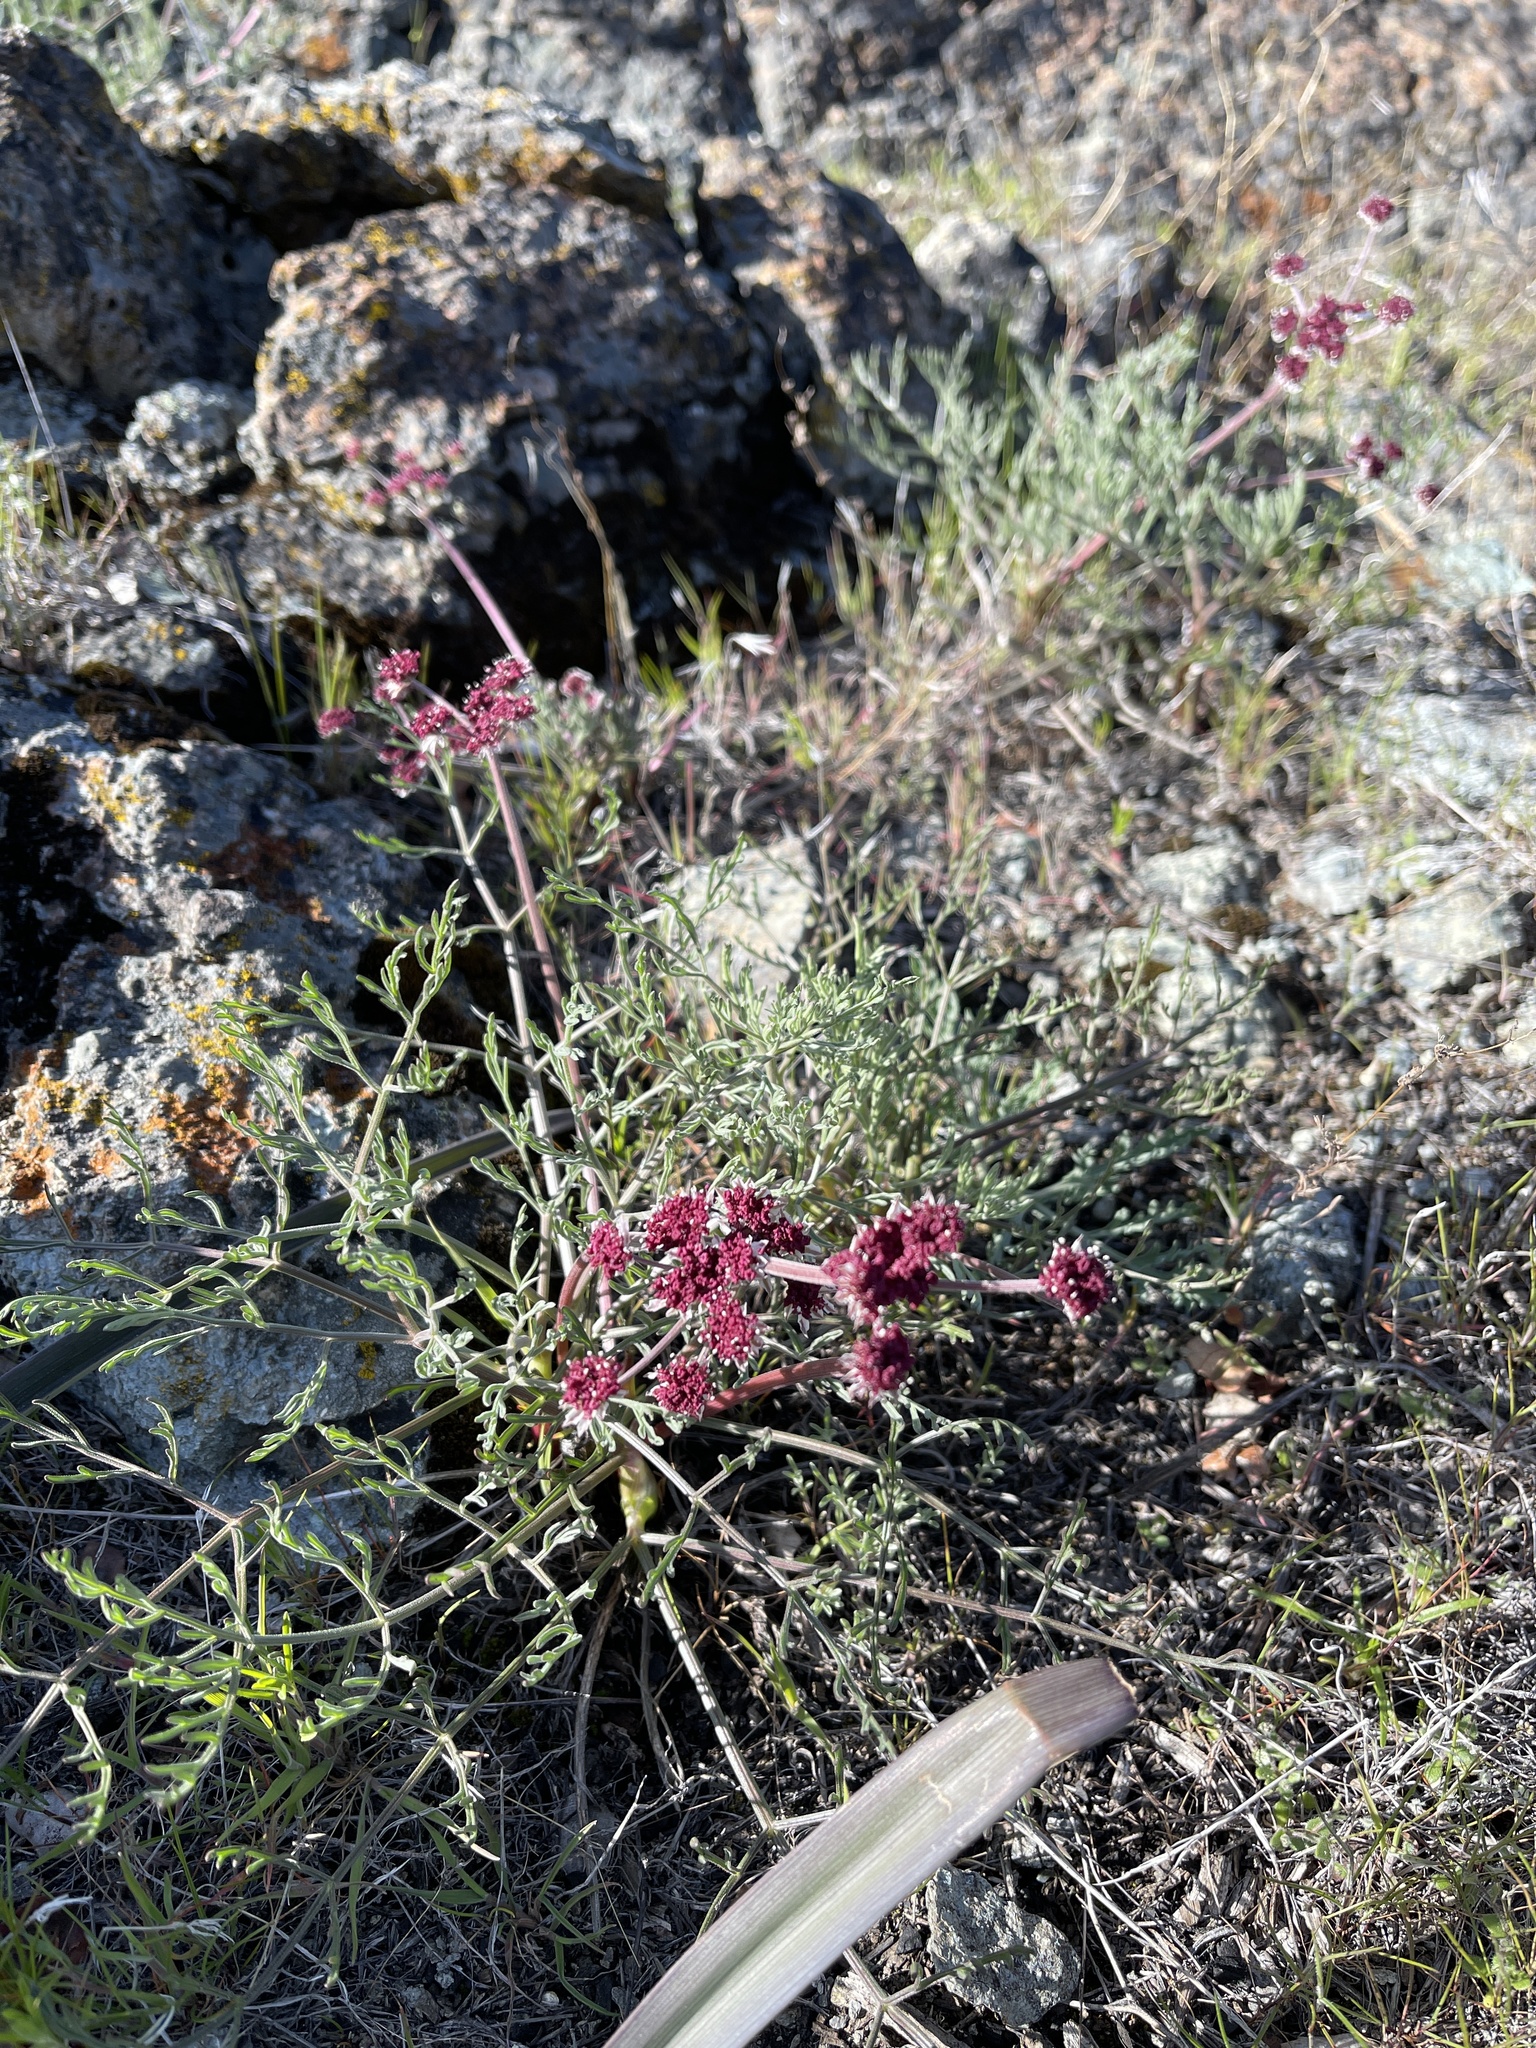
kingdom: Plantae
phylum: Tracheophyta
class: Magnoliopsida
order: Apiales
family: Apiaceae
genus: Lomatium
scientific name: Lomatium hooveri
